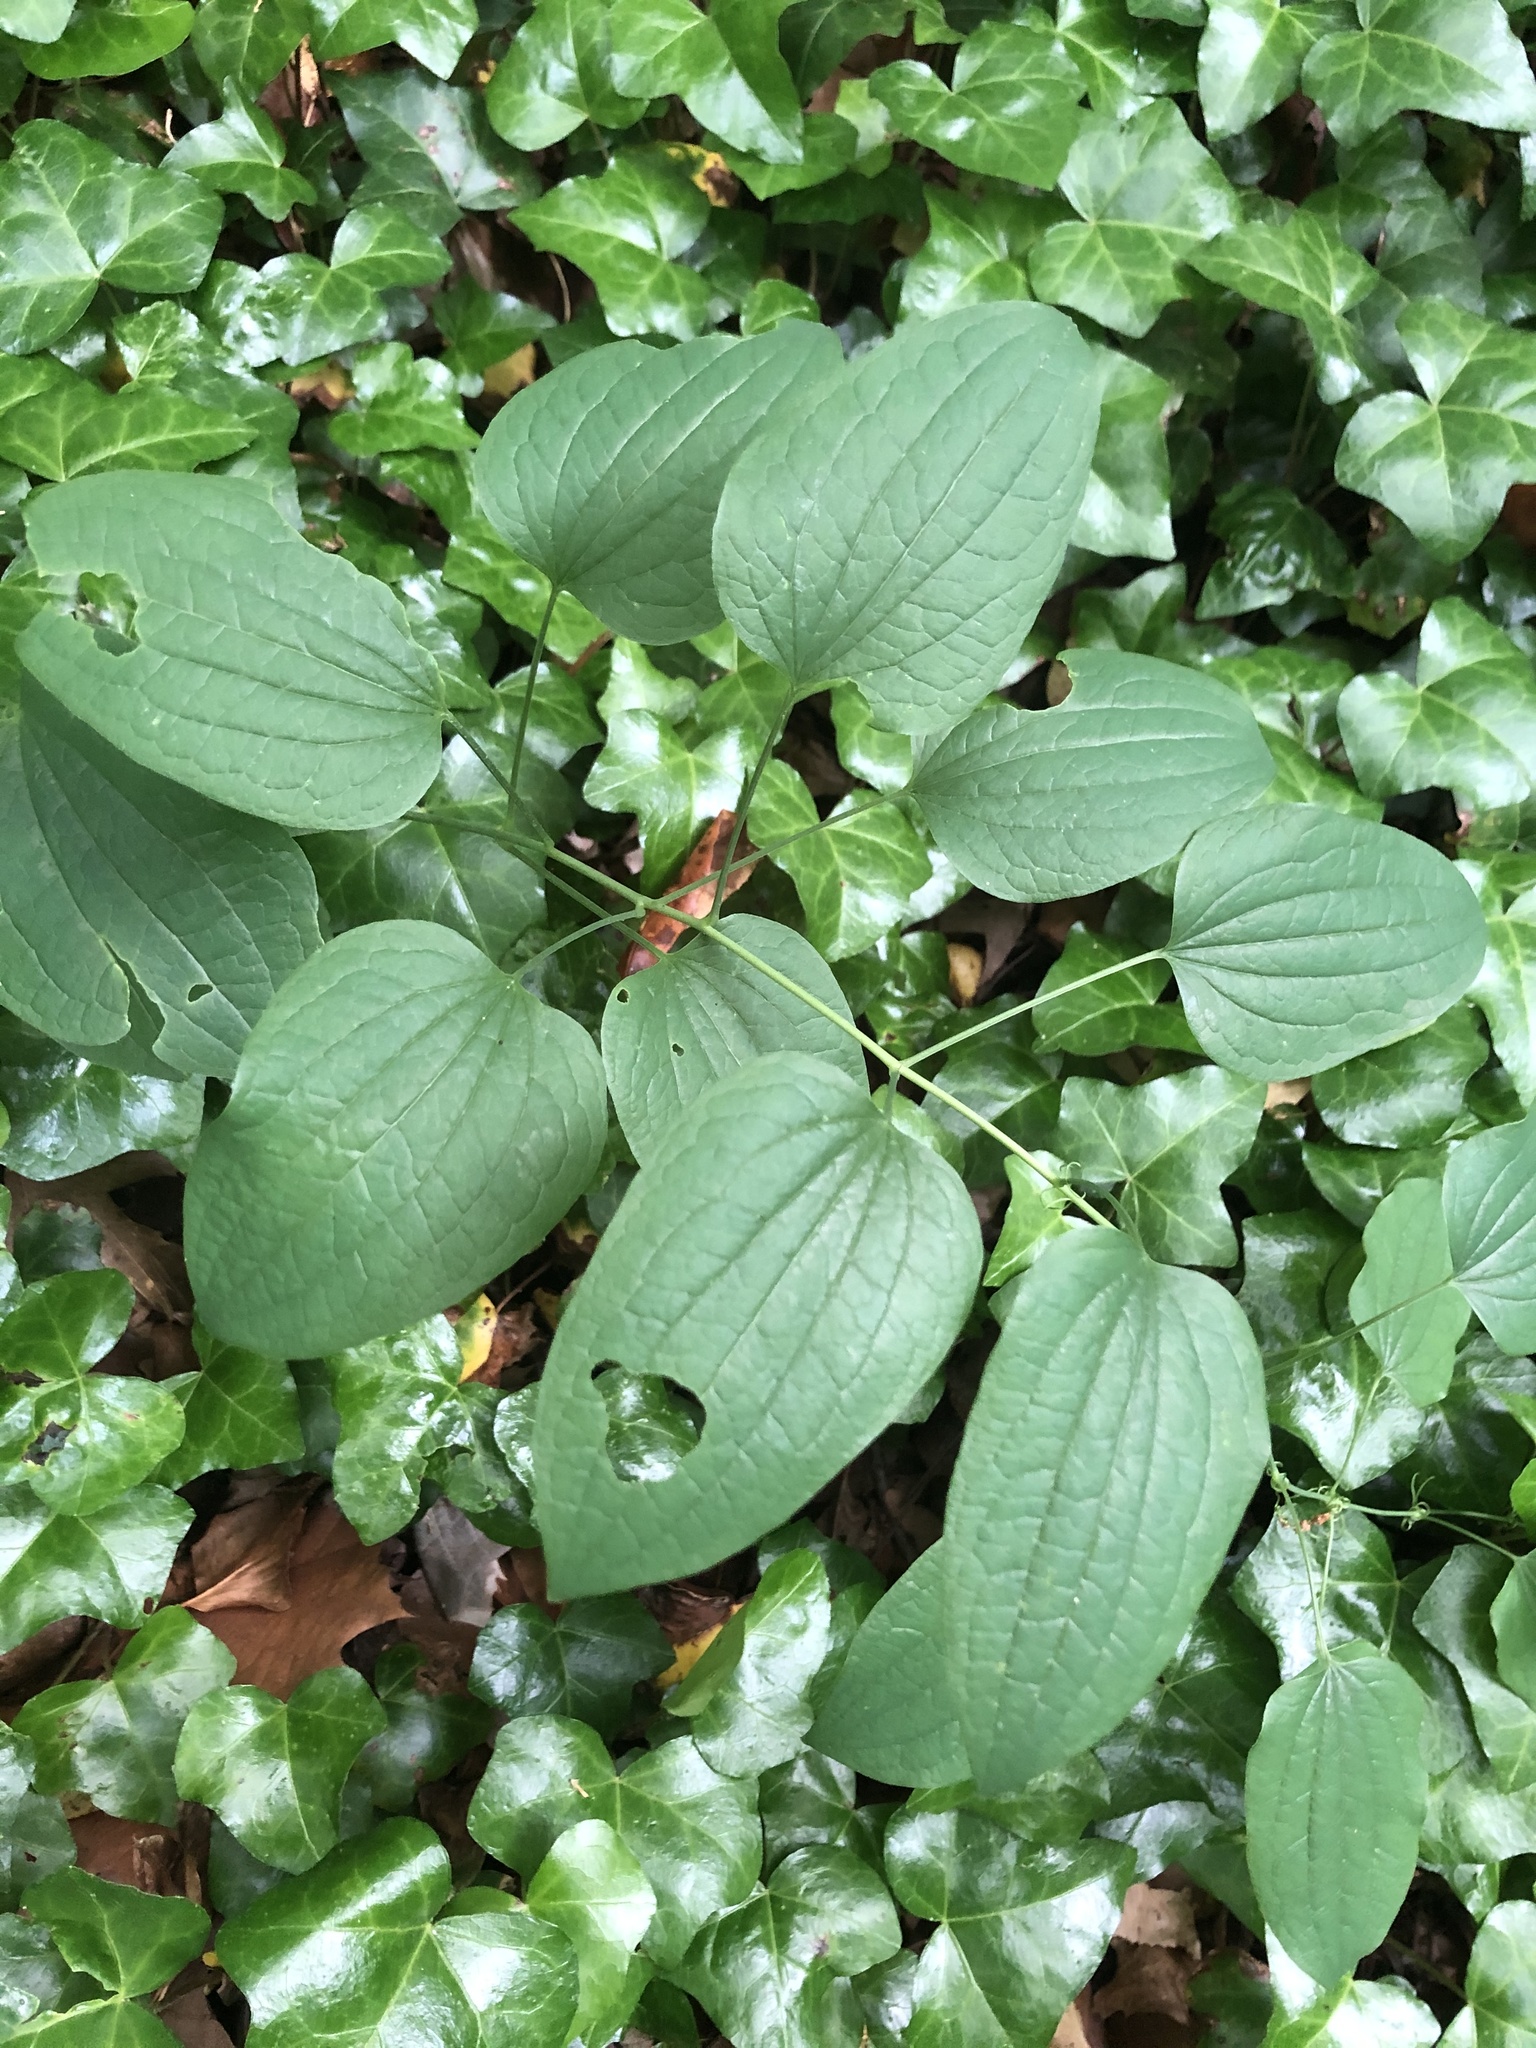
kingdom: Plantae
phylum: Tracheophyta
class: Liliopsida
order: Liliales
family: Smilacaceae
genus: Smilax
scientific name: Smilax lasioneura
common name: Blue ridge carrionflower
